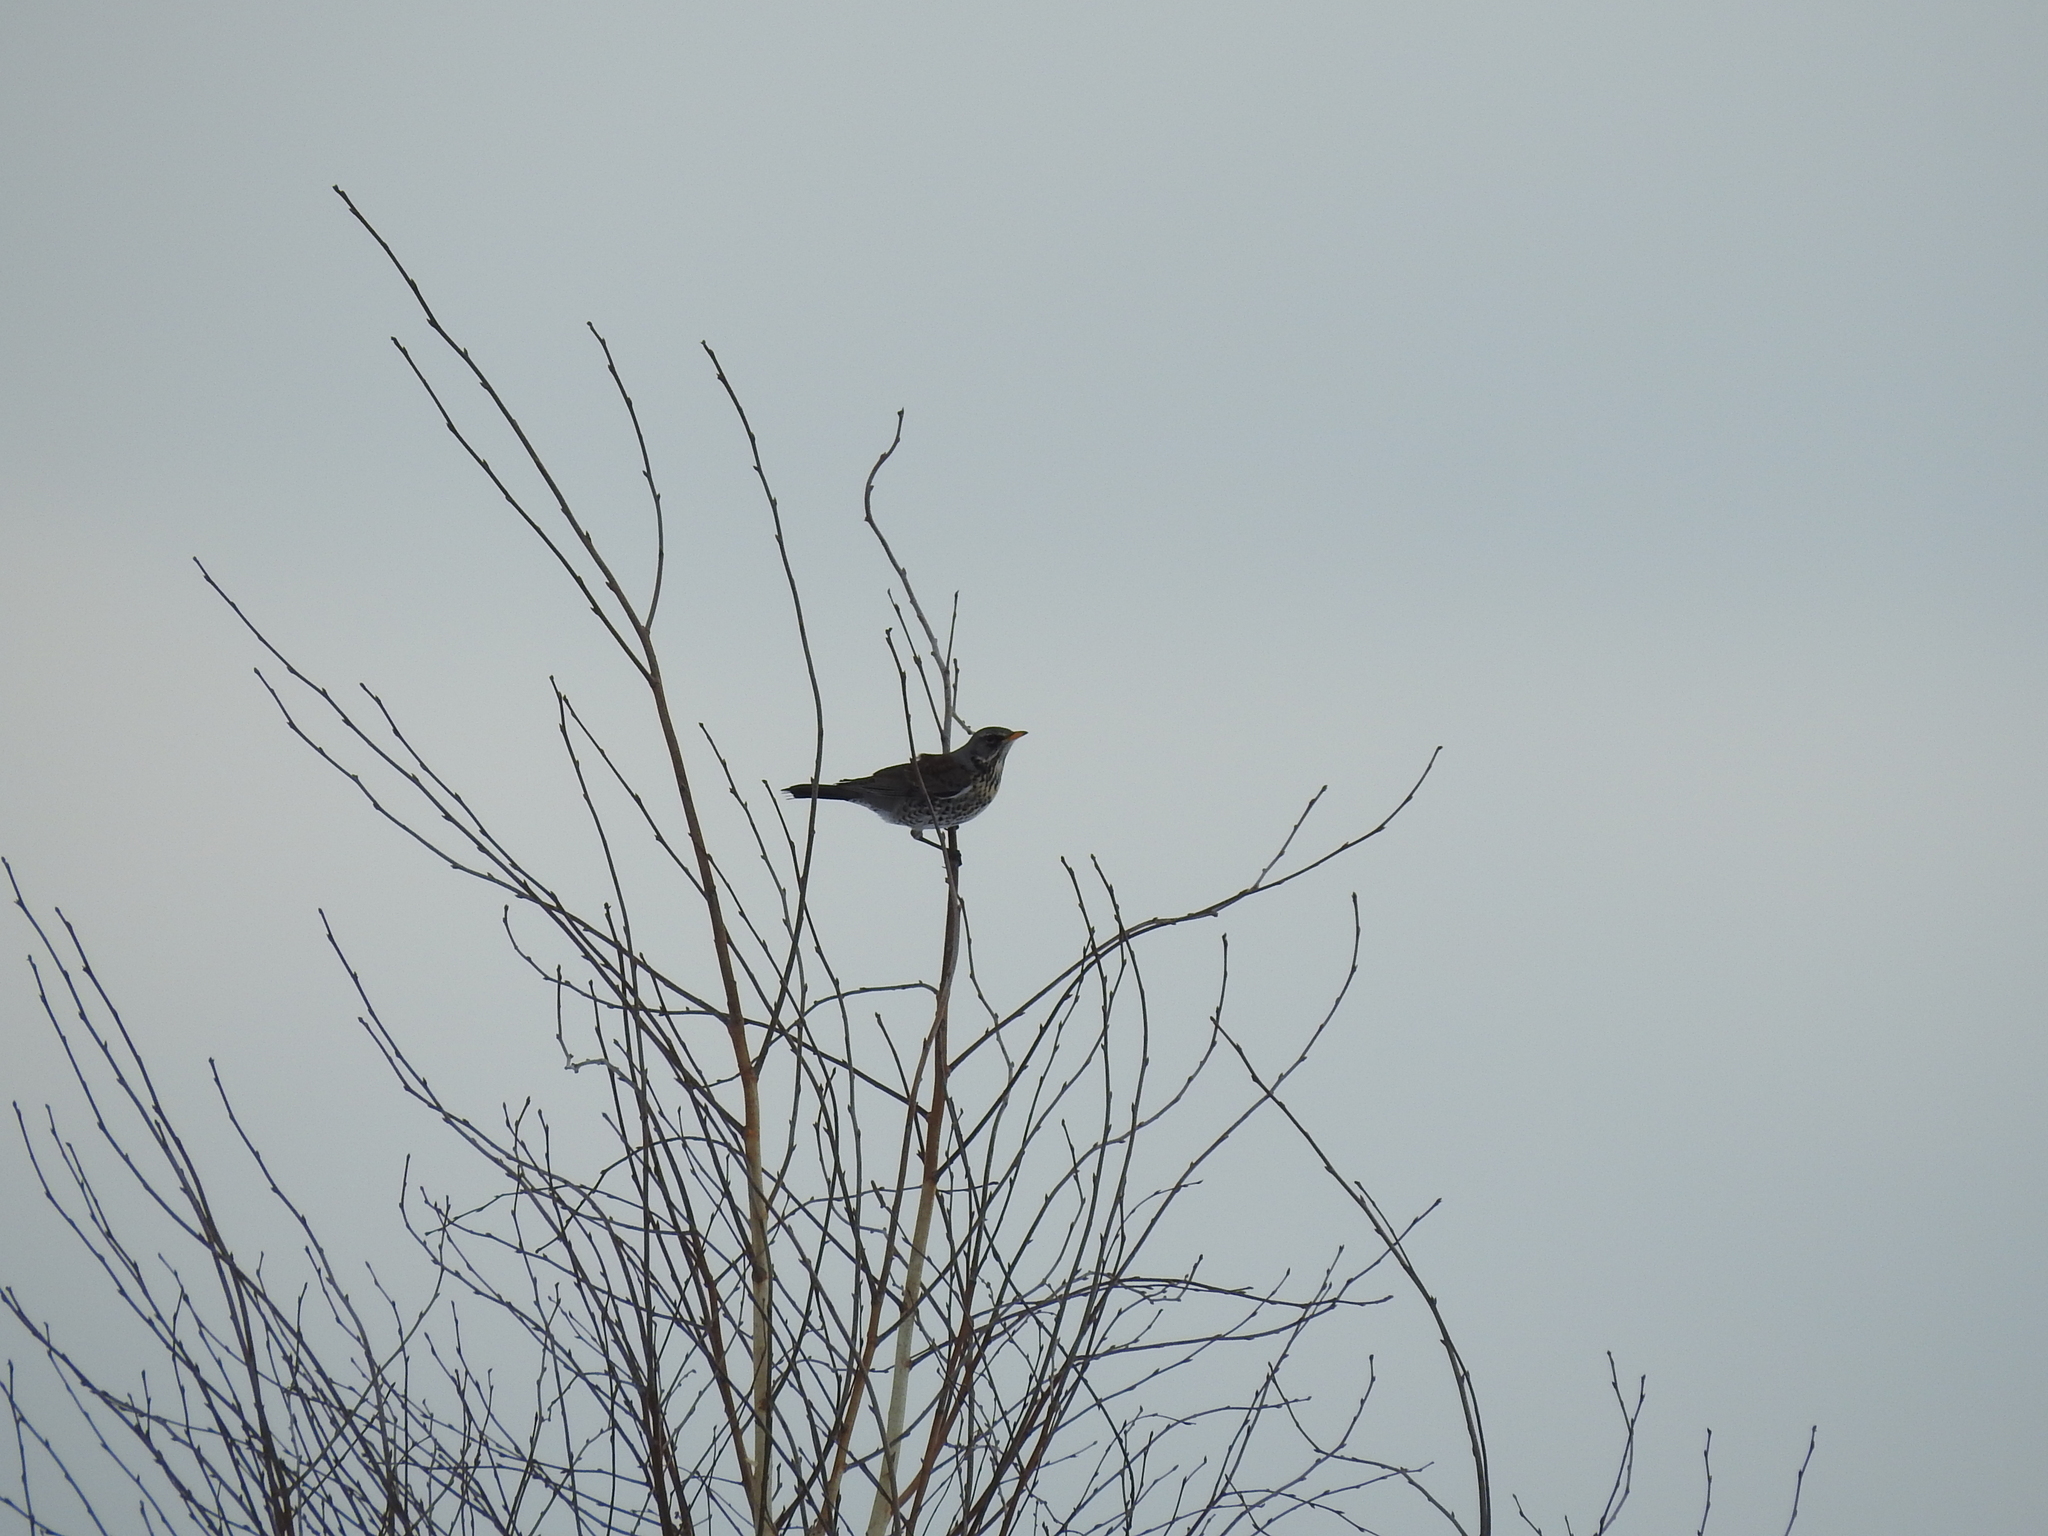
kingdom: Animalia
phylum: Chordata
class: Aves
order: Passeriformes
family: Turdidae
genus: Turdus
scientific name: Turdus pilaris
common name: Fieldfare
